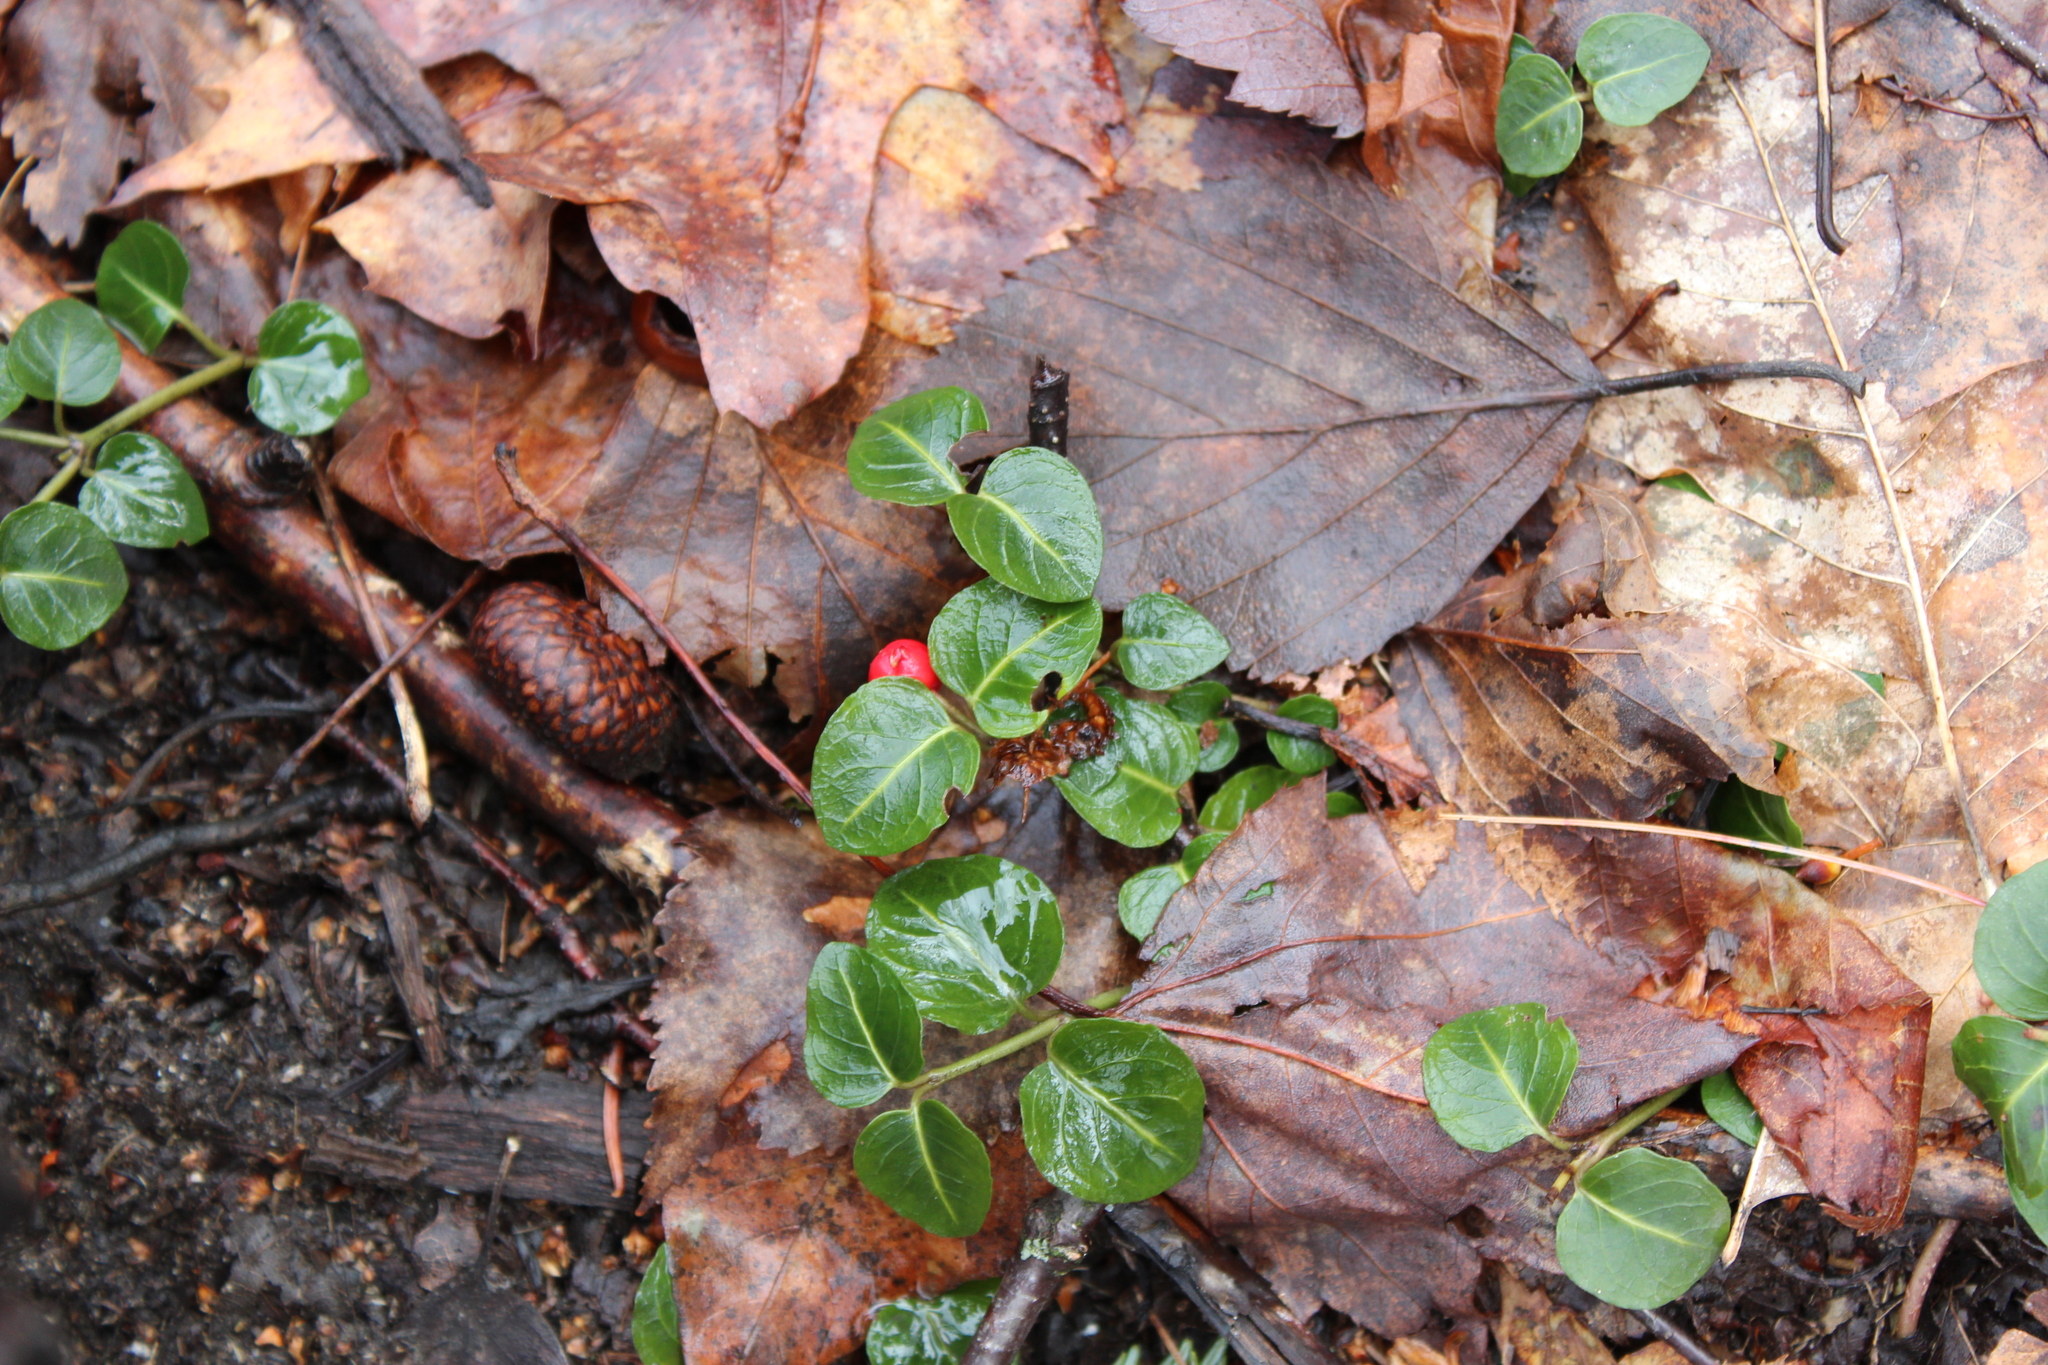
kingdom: Plantae
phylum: Tracheophyta
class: Magnoliopsida
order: Gentianales
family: Rubiaceae
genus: Mitchella
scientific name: Mitchella repens
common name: Partridge-berry
